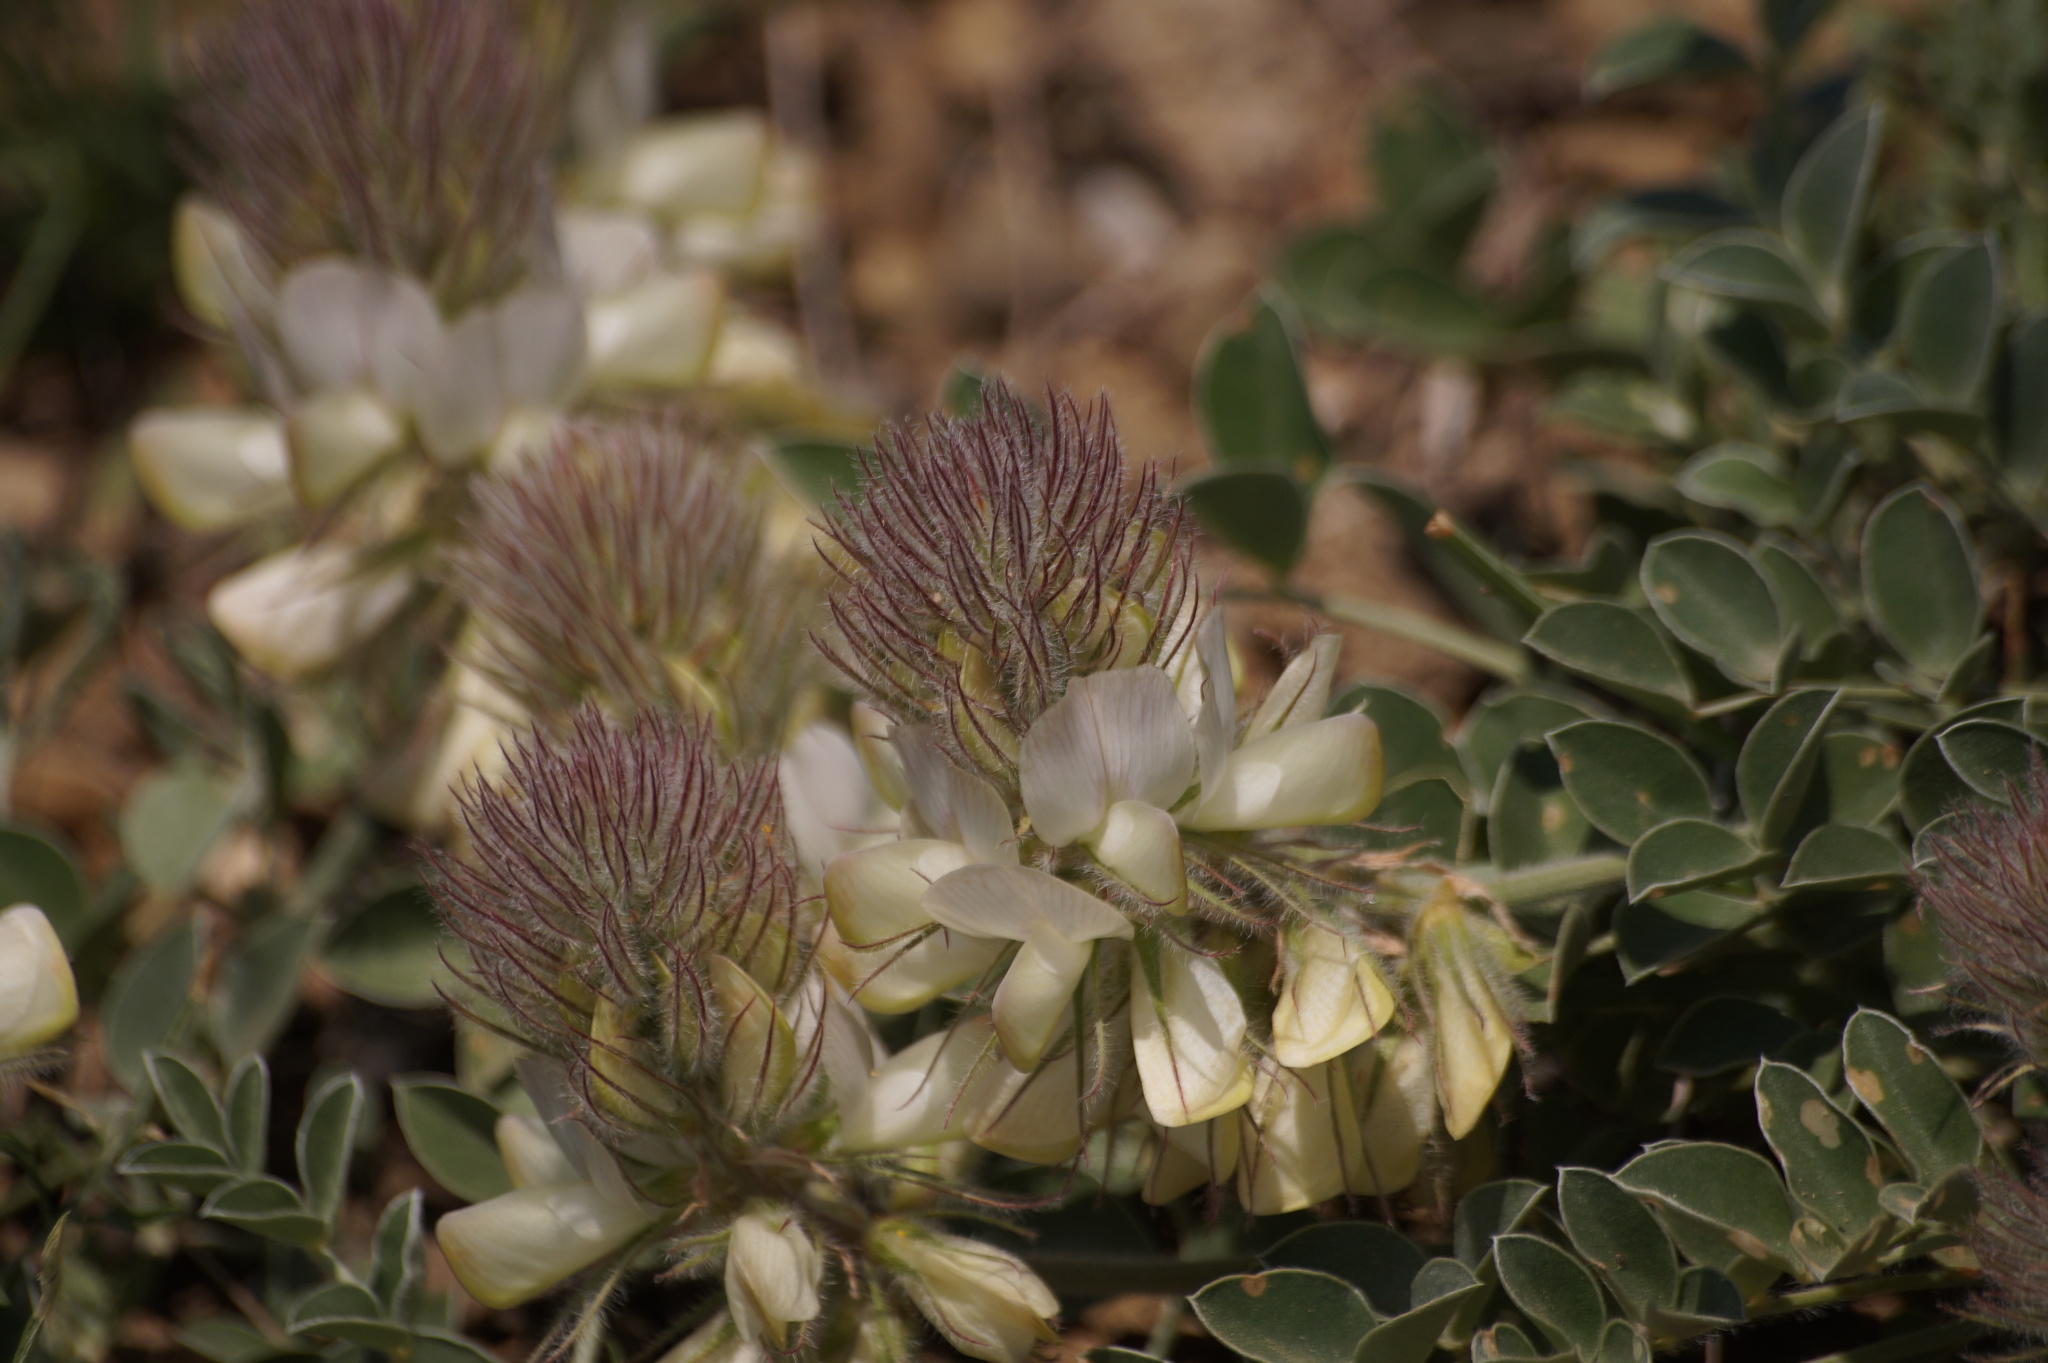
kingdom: Plantae
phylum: Tracheophyta
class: Magnoliopsida
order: Fabales
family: Fabaceae
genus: Hedysarum
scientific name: Hedysarum candidum
